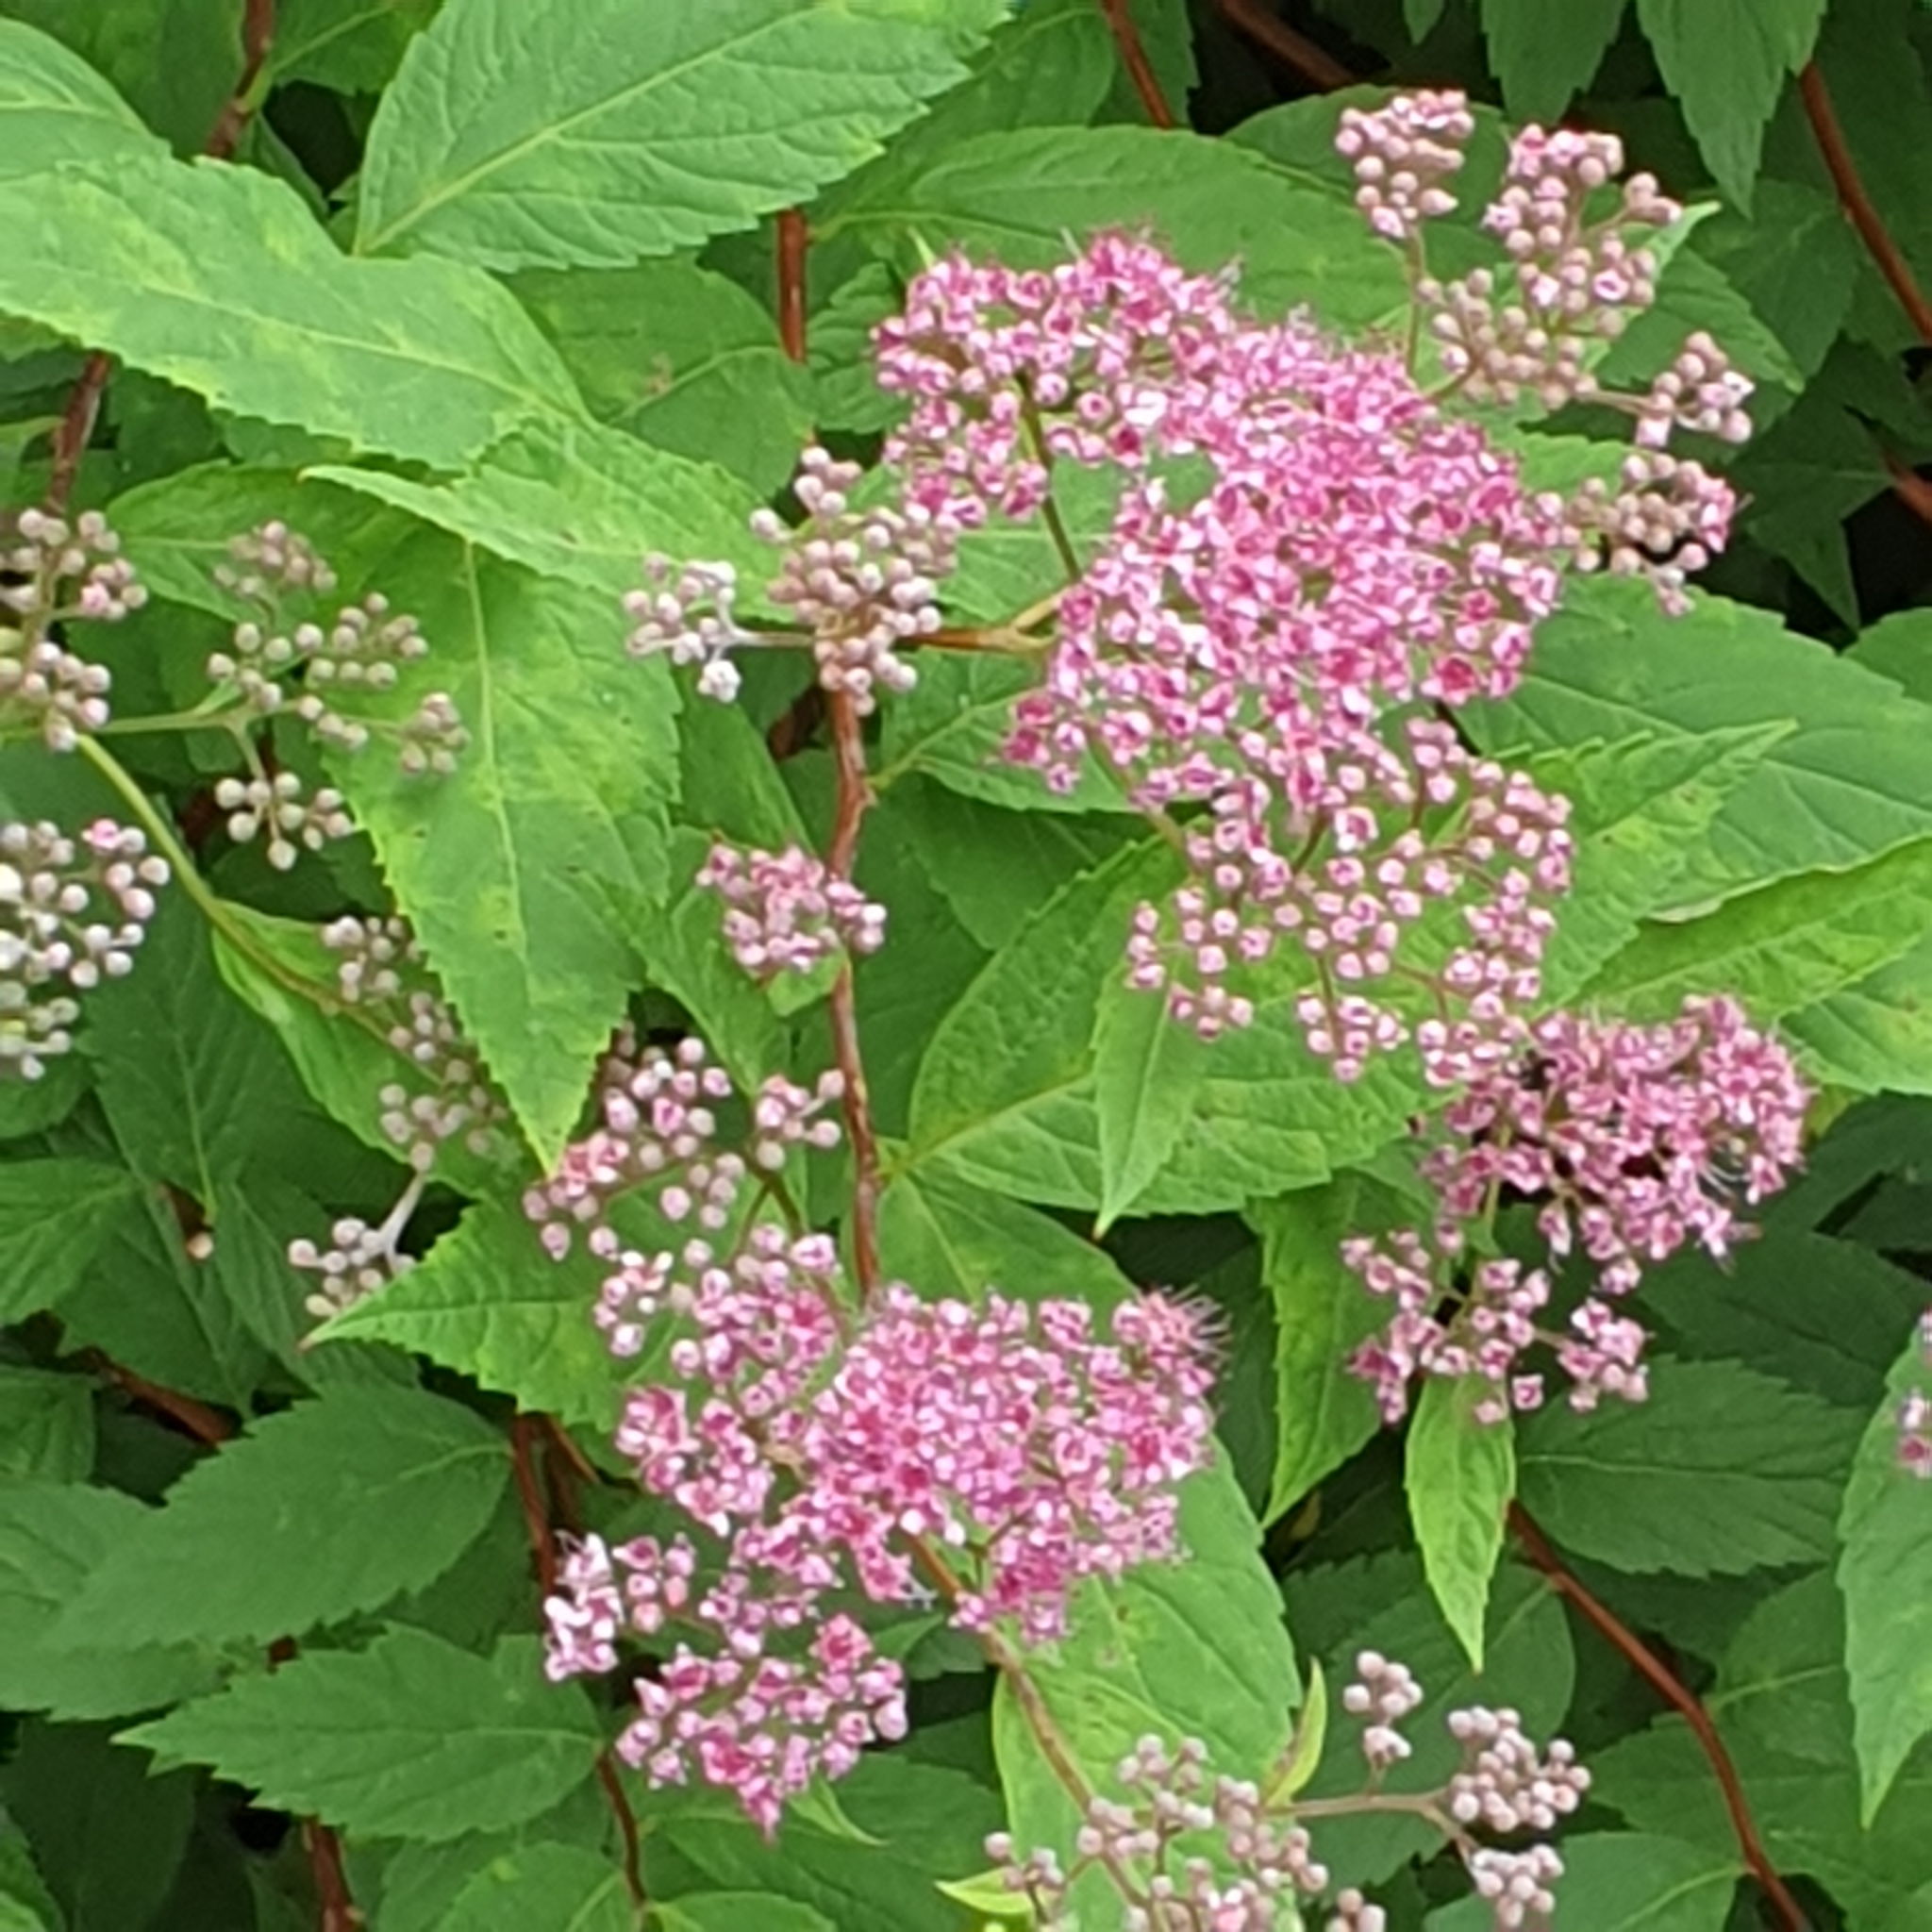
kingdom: Plantae
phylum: Tracheophyta
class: Magnoliopsida
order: Rosales
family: Rosaceae
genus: Spiraea
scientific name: Spiraea japonica
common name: Japanese spiraea
